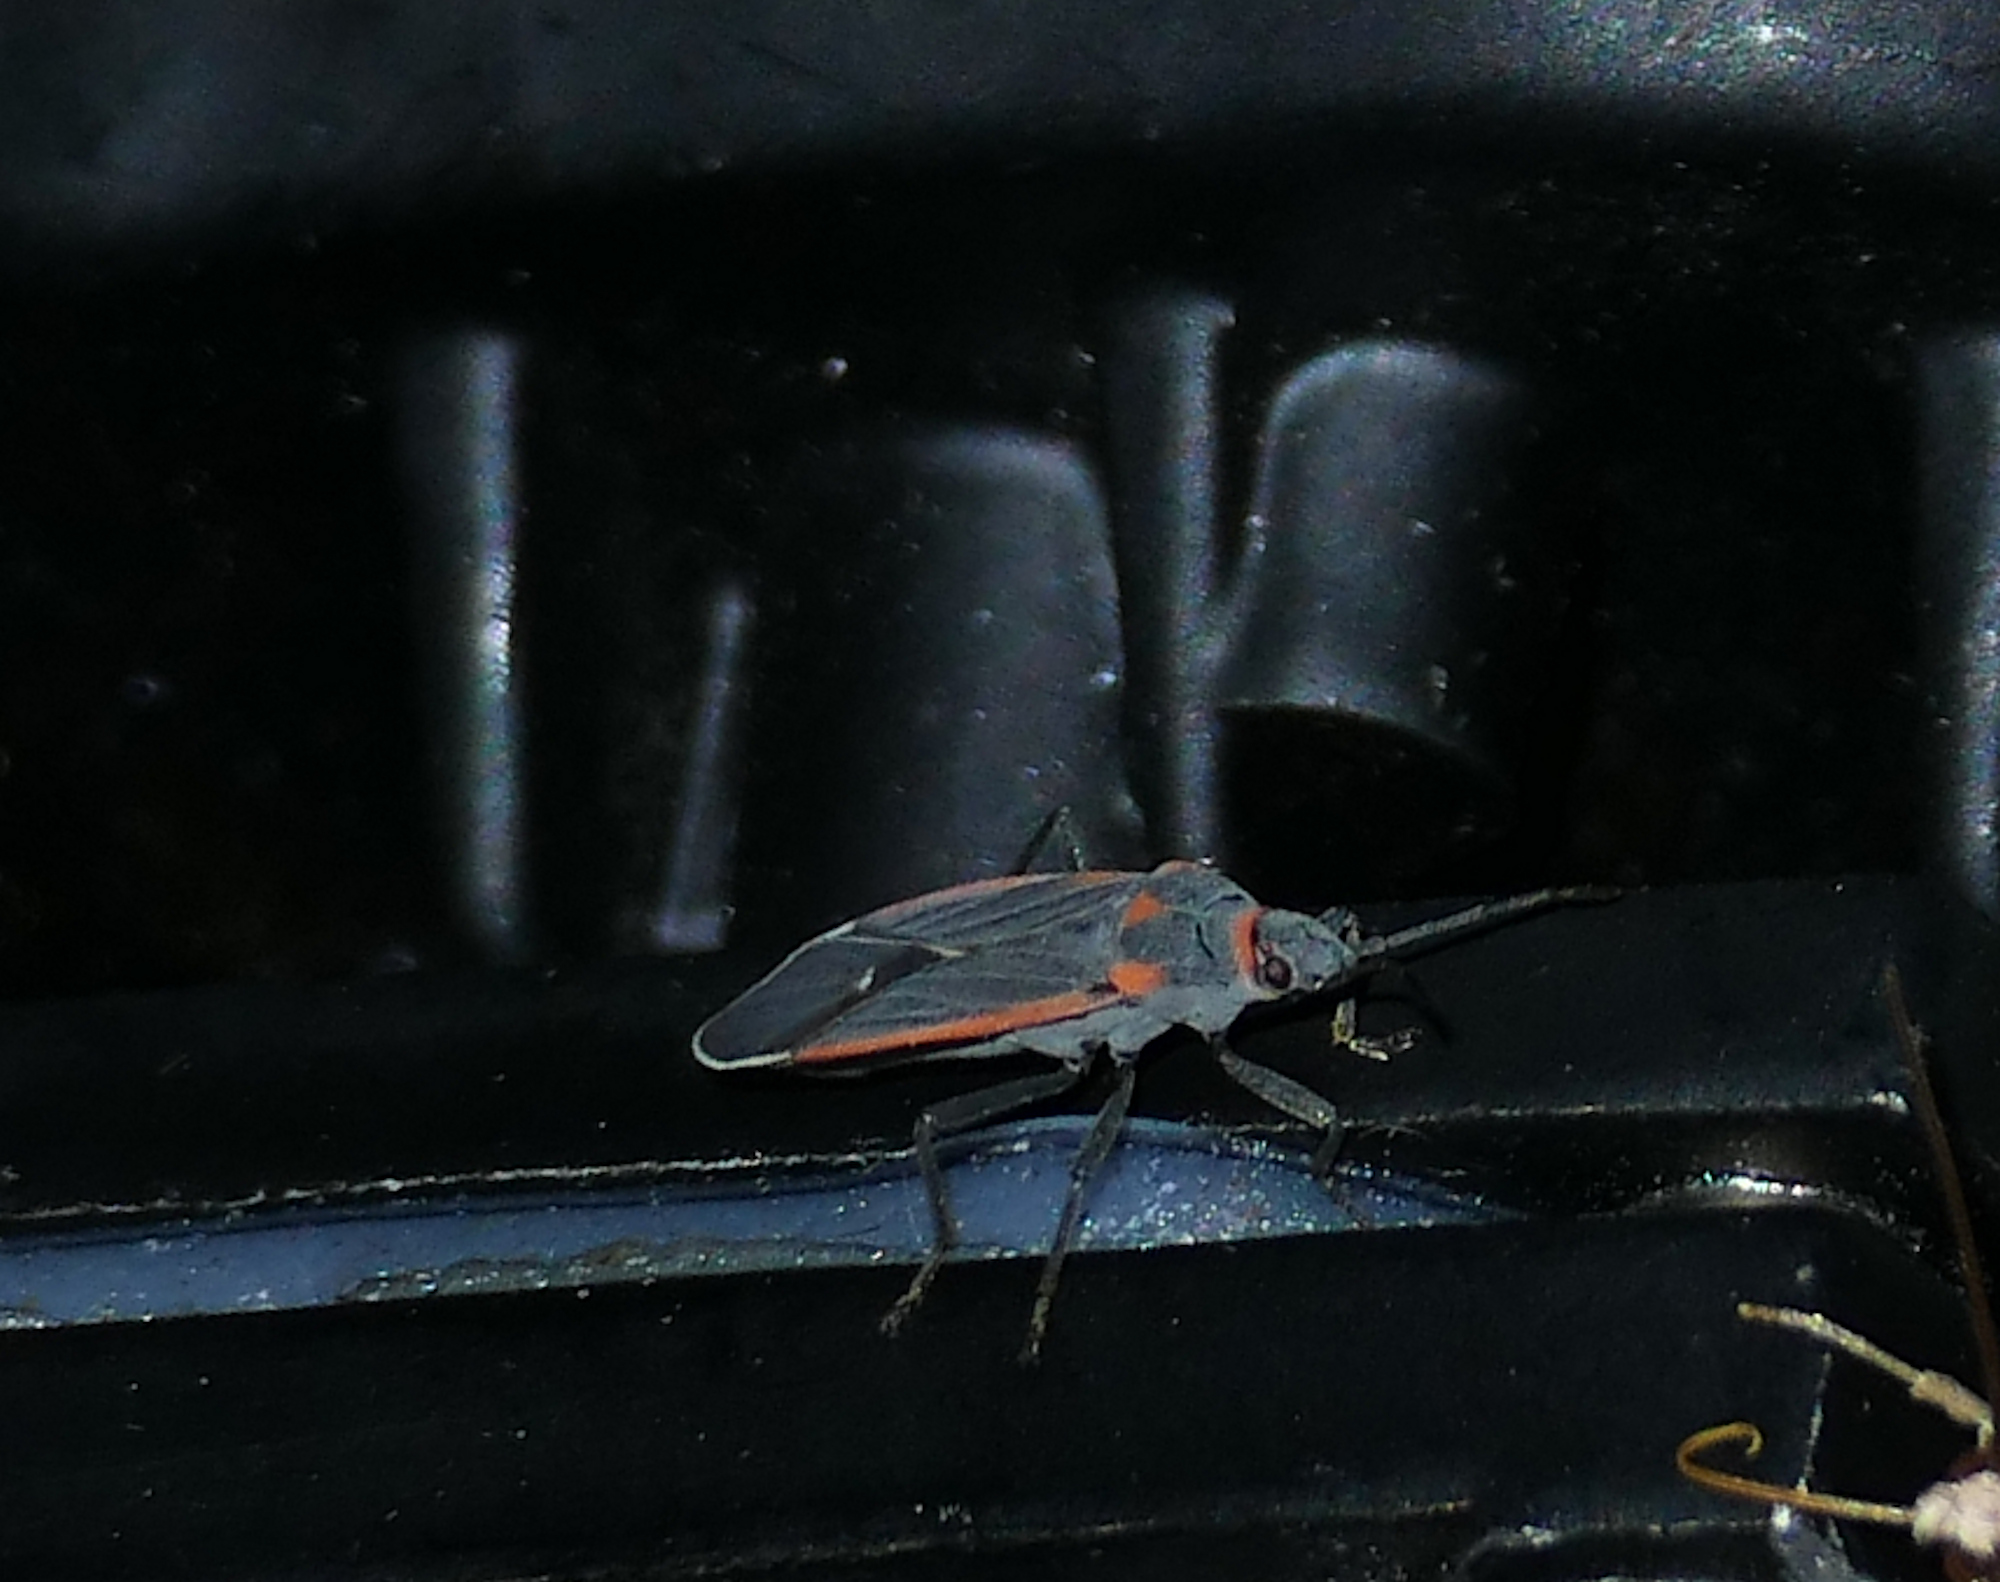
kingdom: Animalia
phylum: Arthropoda
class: Insecta
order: Hemiptera
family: Lygaeidae
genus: Melacoryphus
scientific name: Melacoryphus lateralis
